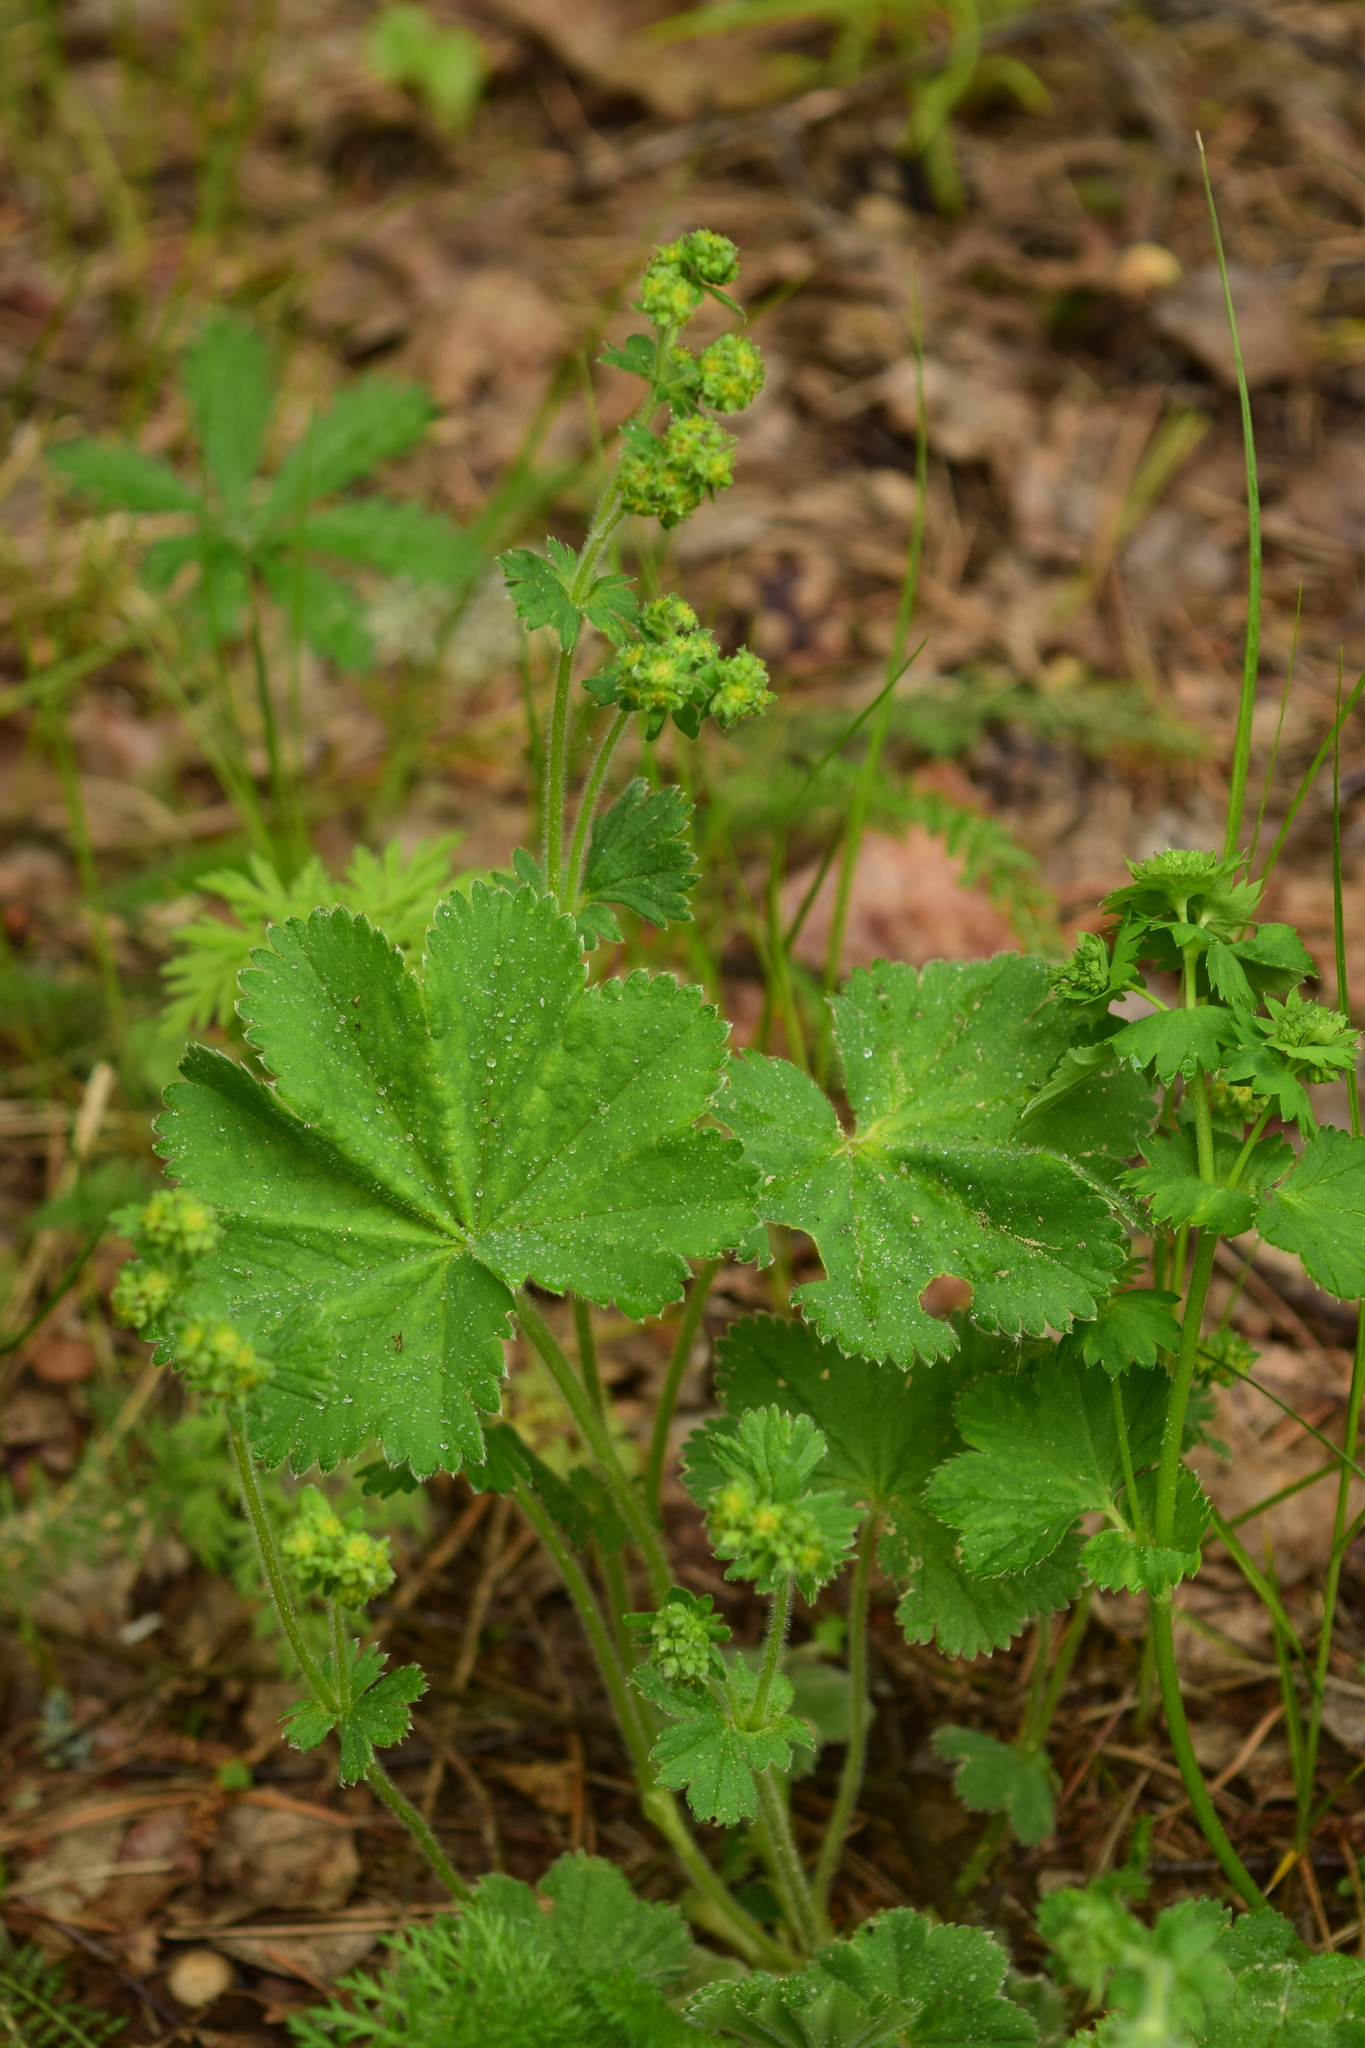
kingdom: Plantae
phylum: Tracheophyta
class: Magnoliopsida
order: Rosales
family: Rosaceae
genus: Alchemilla
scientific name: Alchemilla
